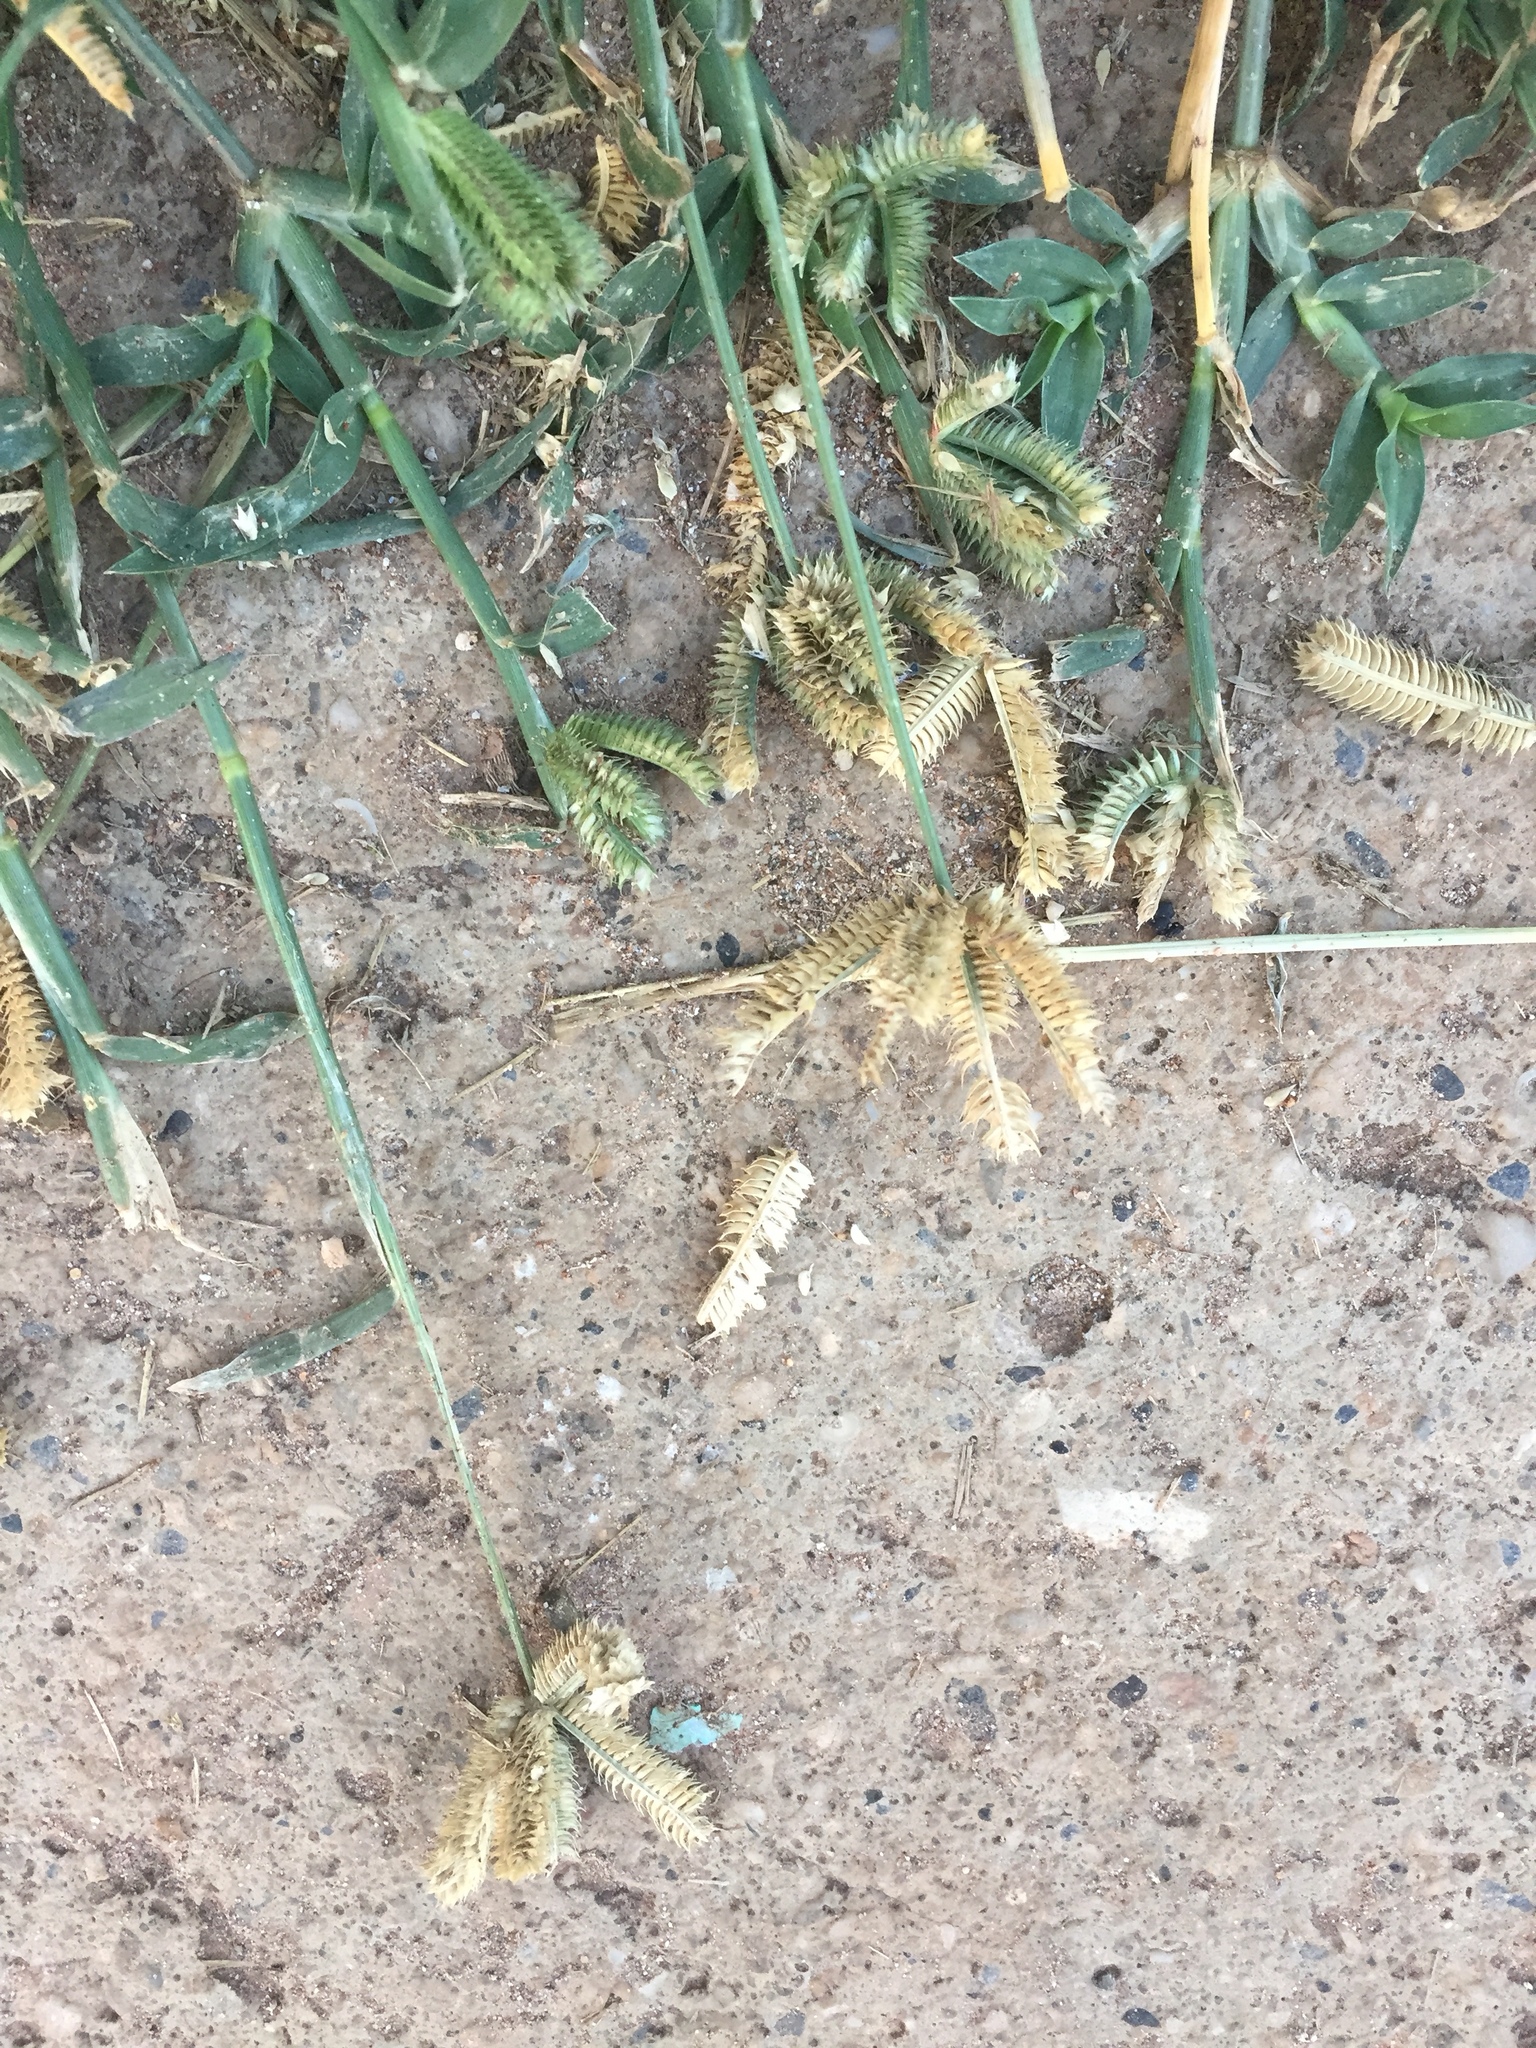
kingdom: Plantae
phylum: Tracheophyta
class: Liliopsida
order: Poales
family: Poaceae
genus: Dactyloctenium
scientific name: Dactyloctenium aegyptium
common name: Egyptian grass
